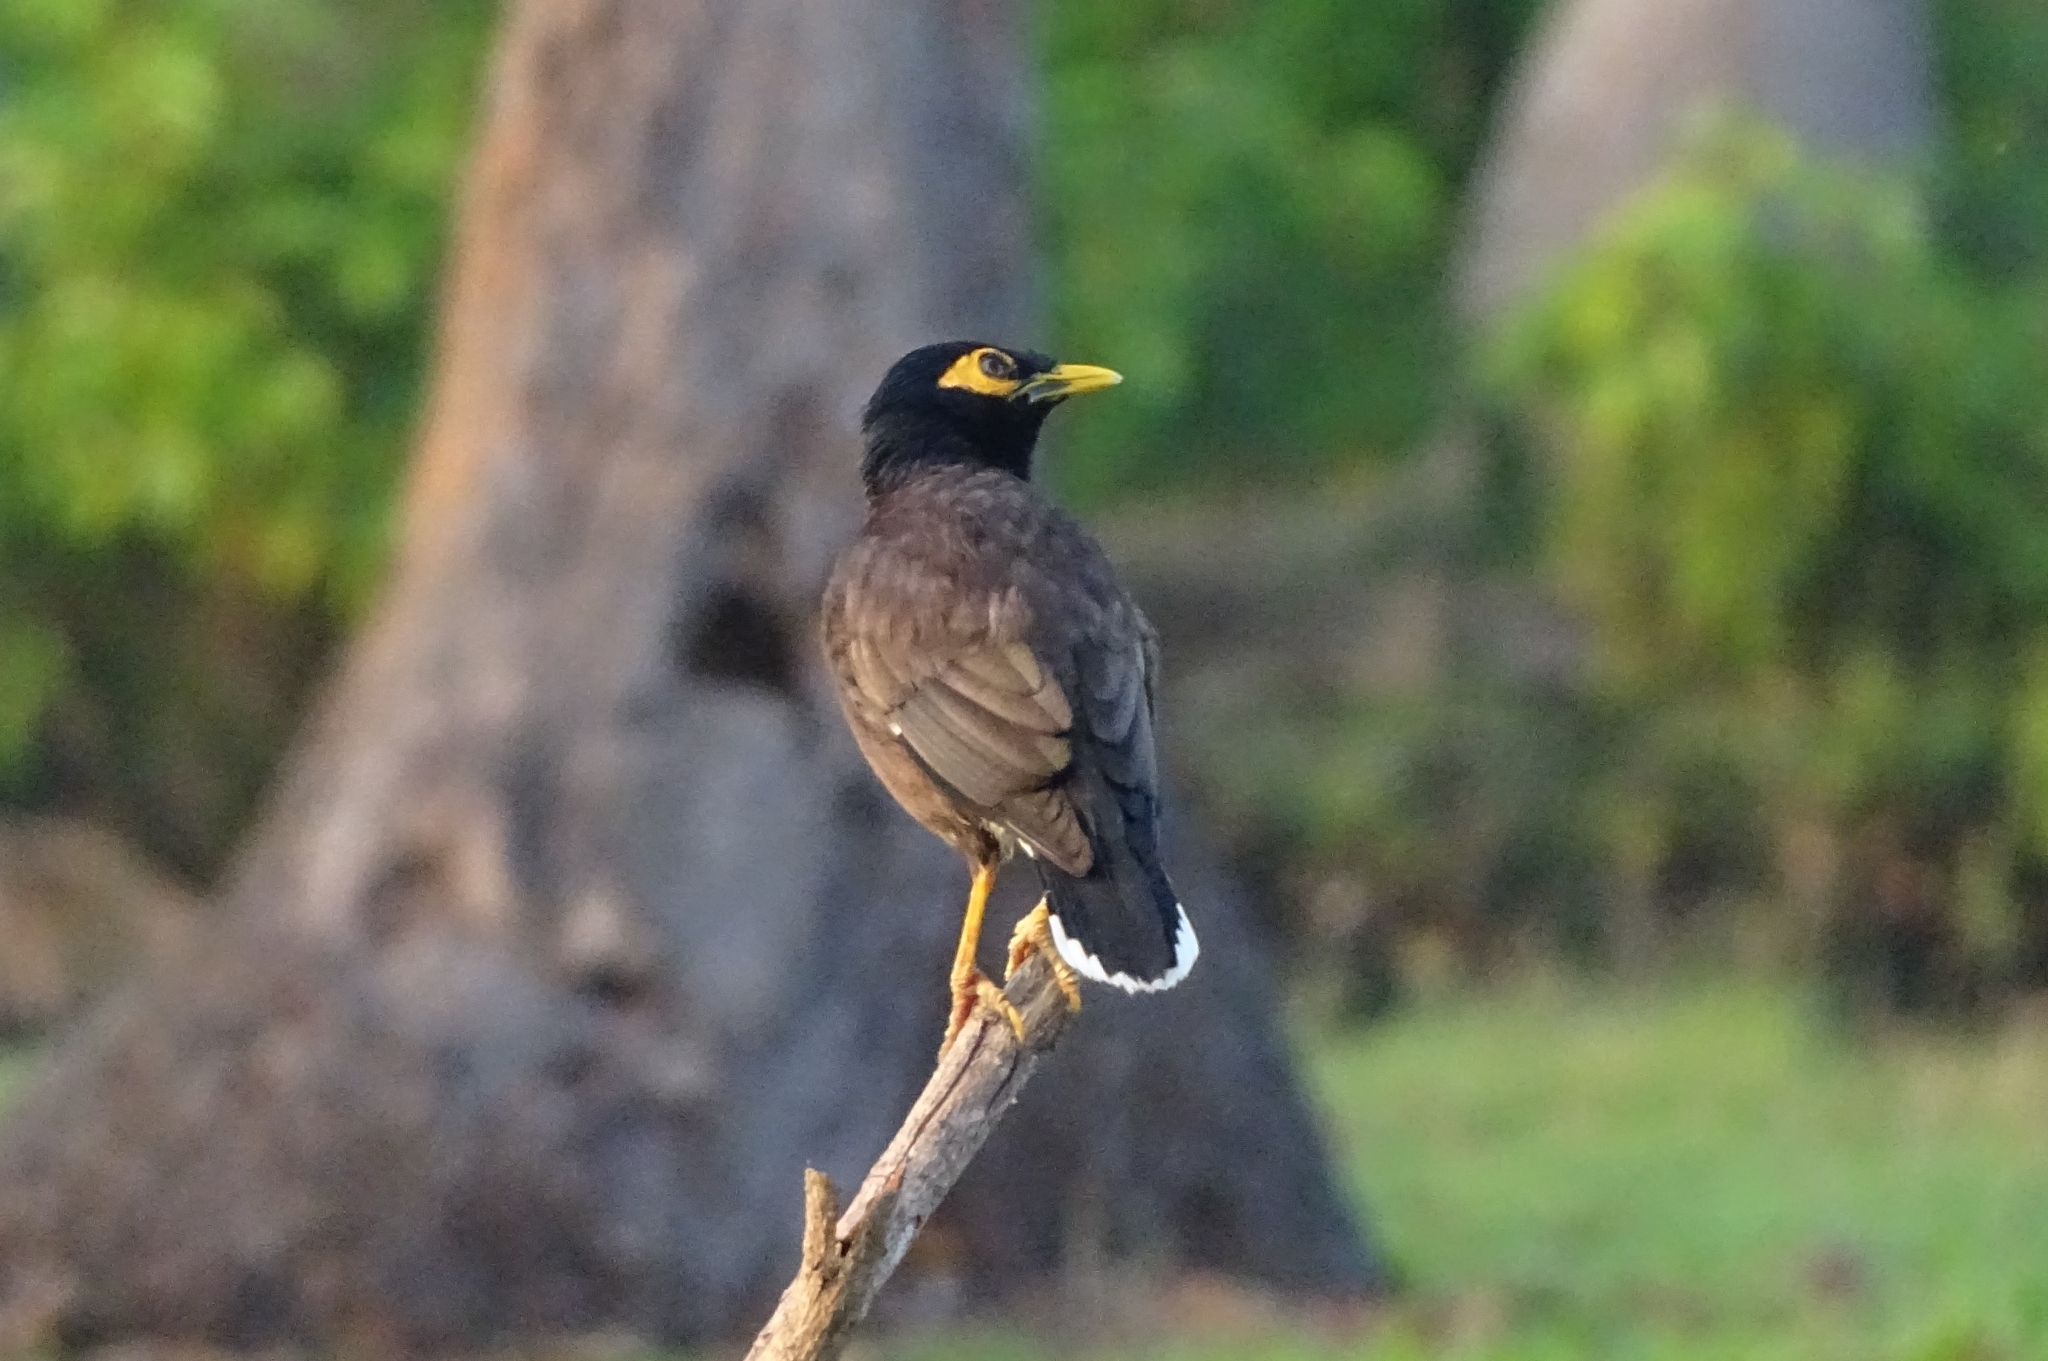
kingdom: Animalia
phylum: Chordata
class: Aves
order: Passeriformes
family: Sturnidae
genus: Acridotheres
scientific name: Acridotheres tristis
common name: Common myna
